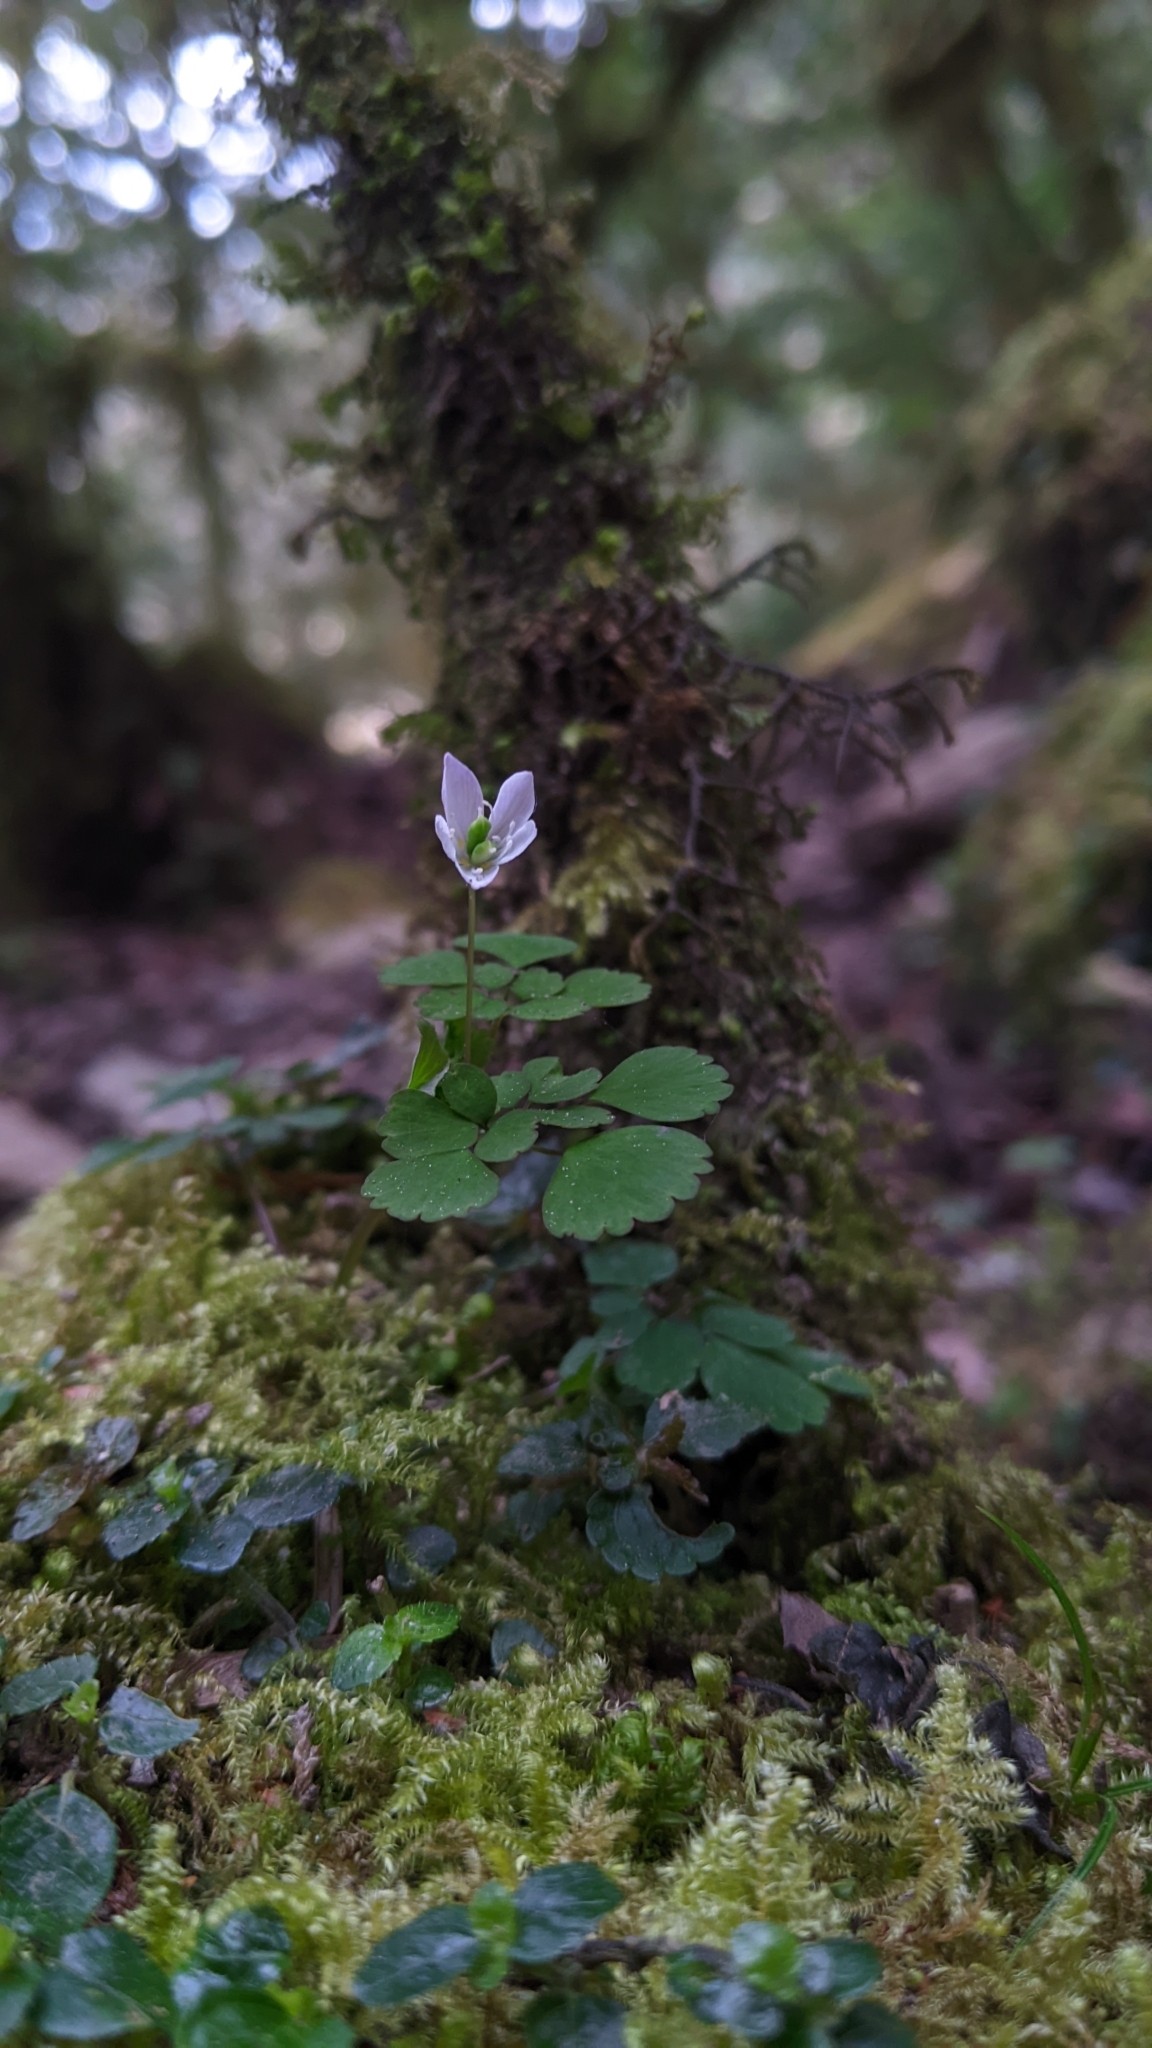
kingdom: Plantae
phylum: Tracheophyta
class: Magnoliopsida
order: Ranunculales
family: Ranunculaceae
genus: Dichocarpum
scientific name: Dichocarpum adiantifolium
